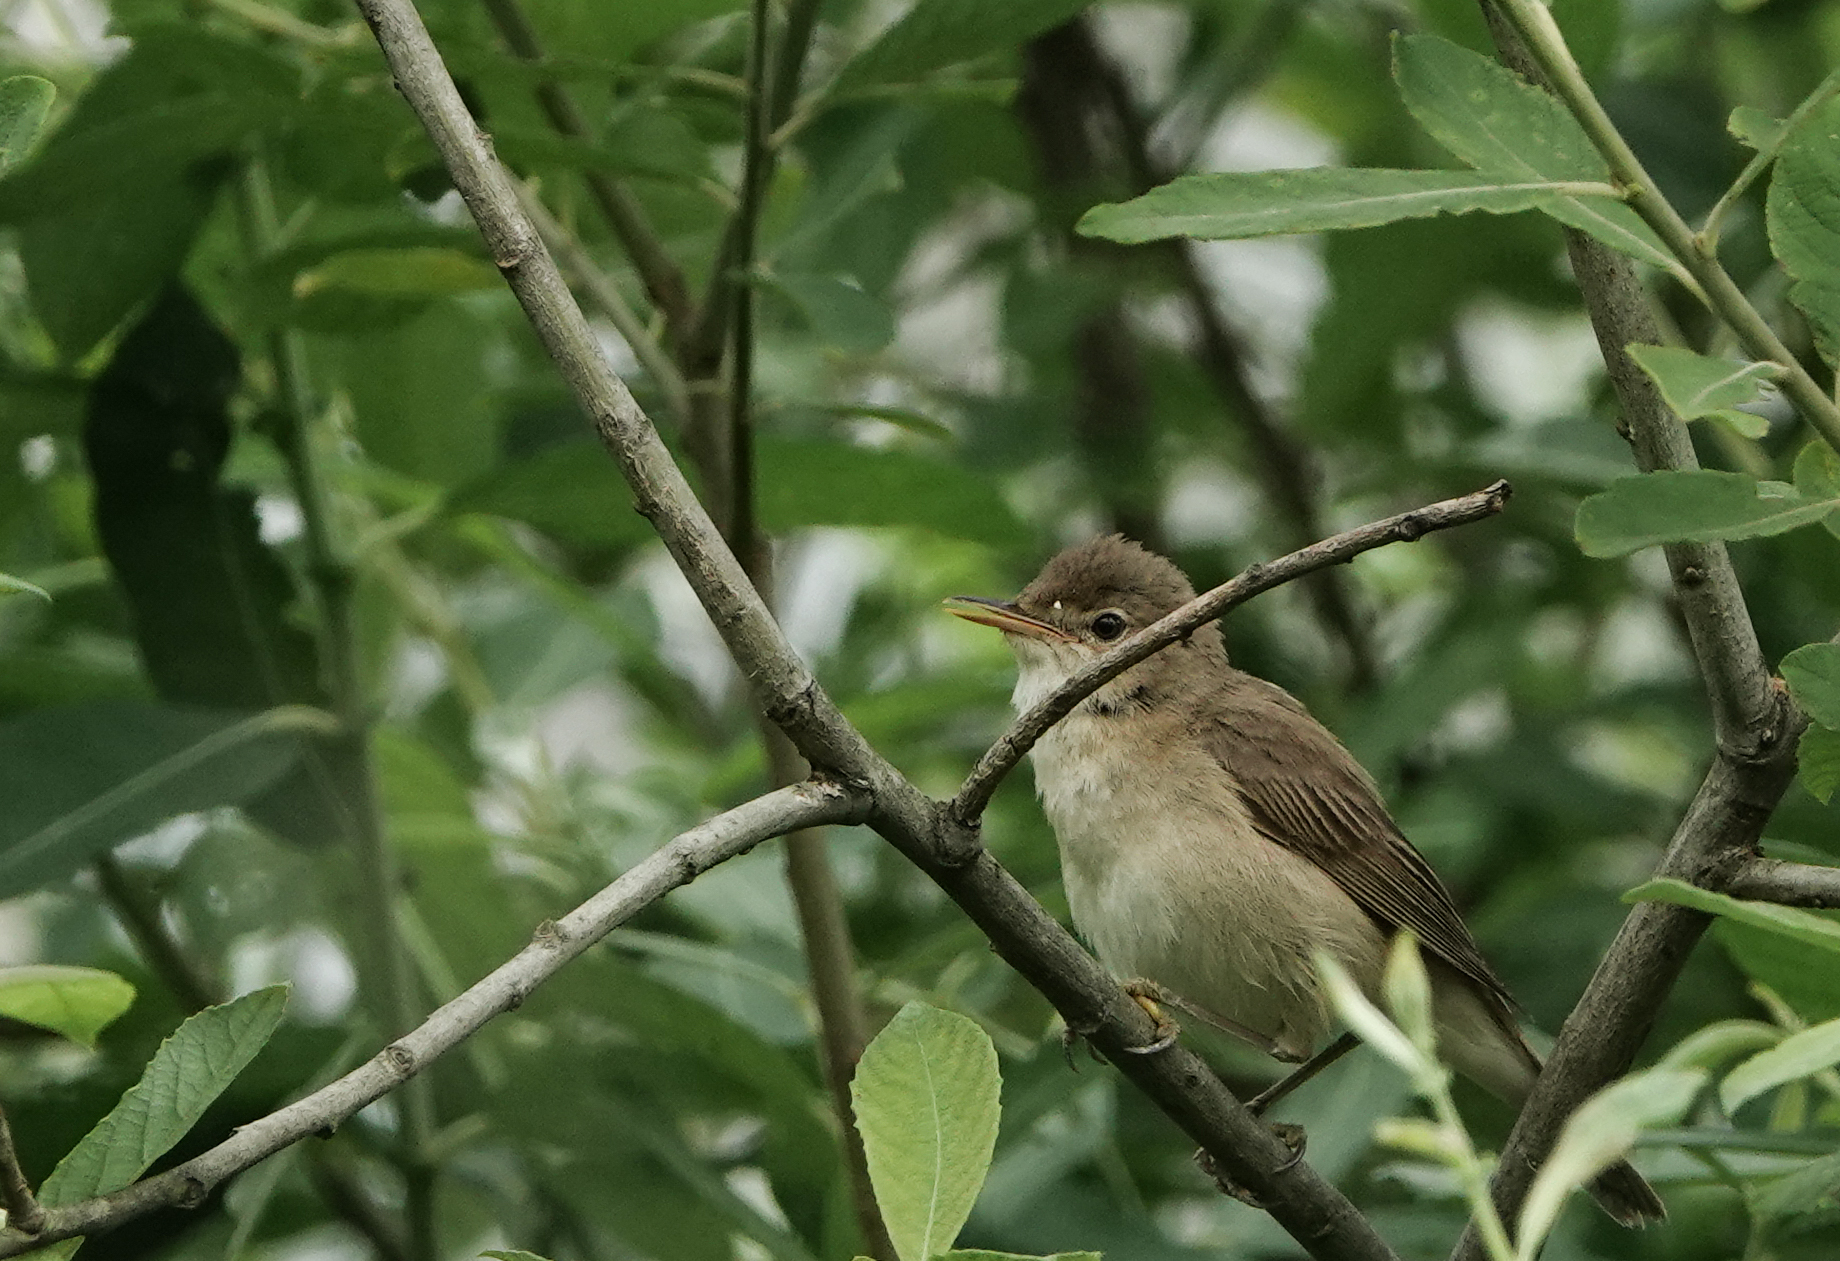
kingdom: Animalia
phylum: Chordata
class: Aves
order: Passeriformes
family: Acrocephalidae
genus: Acrocephalus
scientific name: Acrocephalus scirpaceus
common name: Eurasian reed warbler
